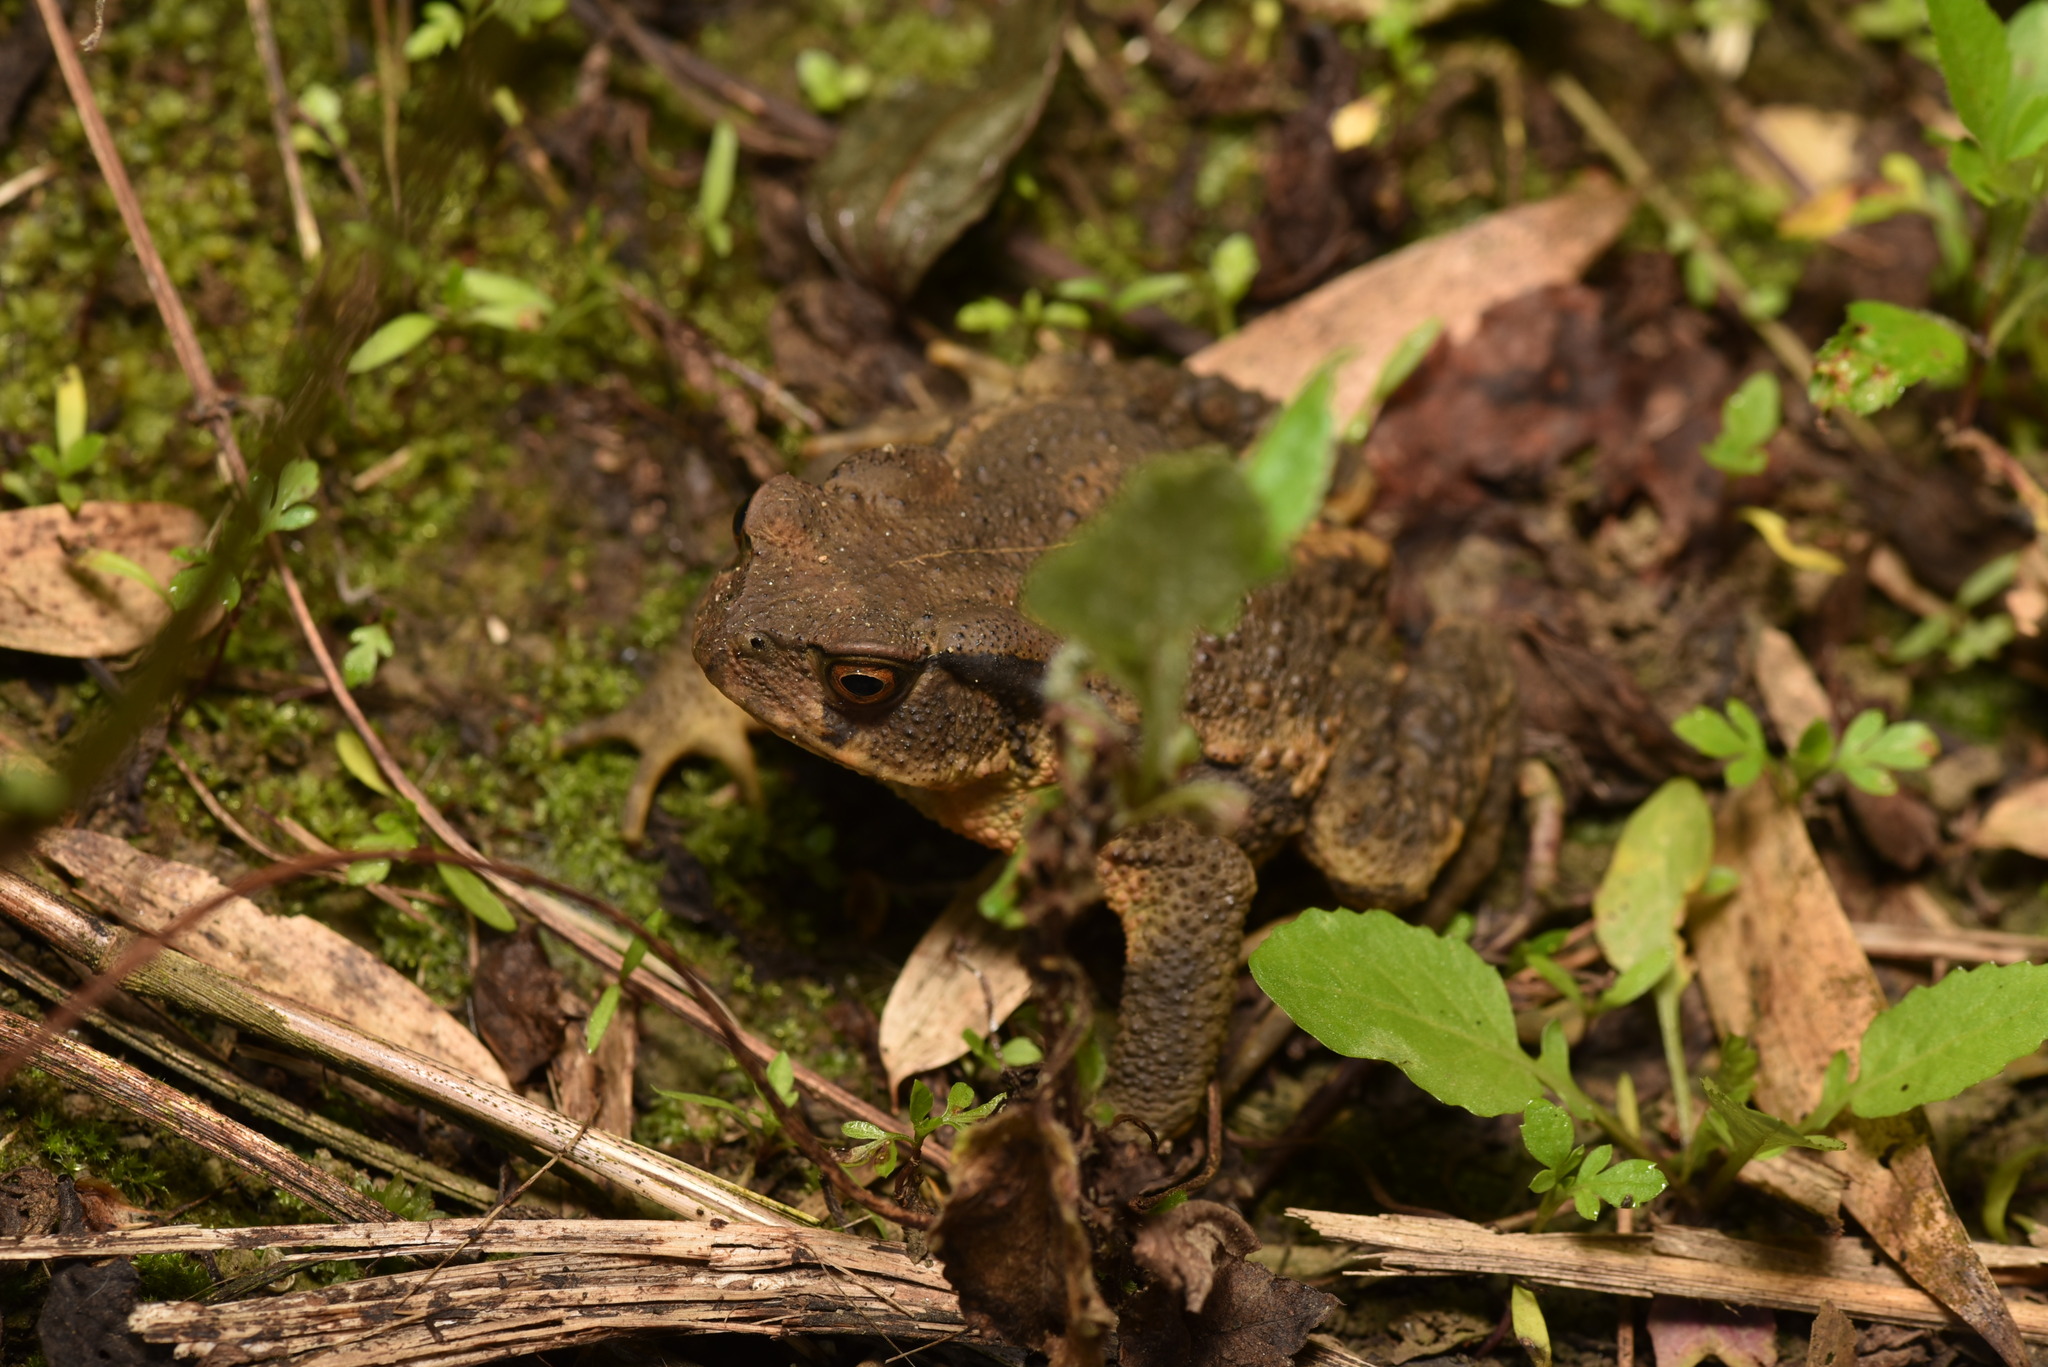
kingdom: Animalia
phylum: Chordata
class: Amphibia
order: Anura
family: Bufonidae
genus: Bufo
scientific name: Bufo bankorensis
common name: Bankor toad
